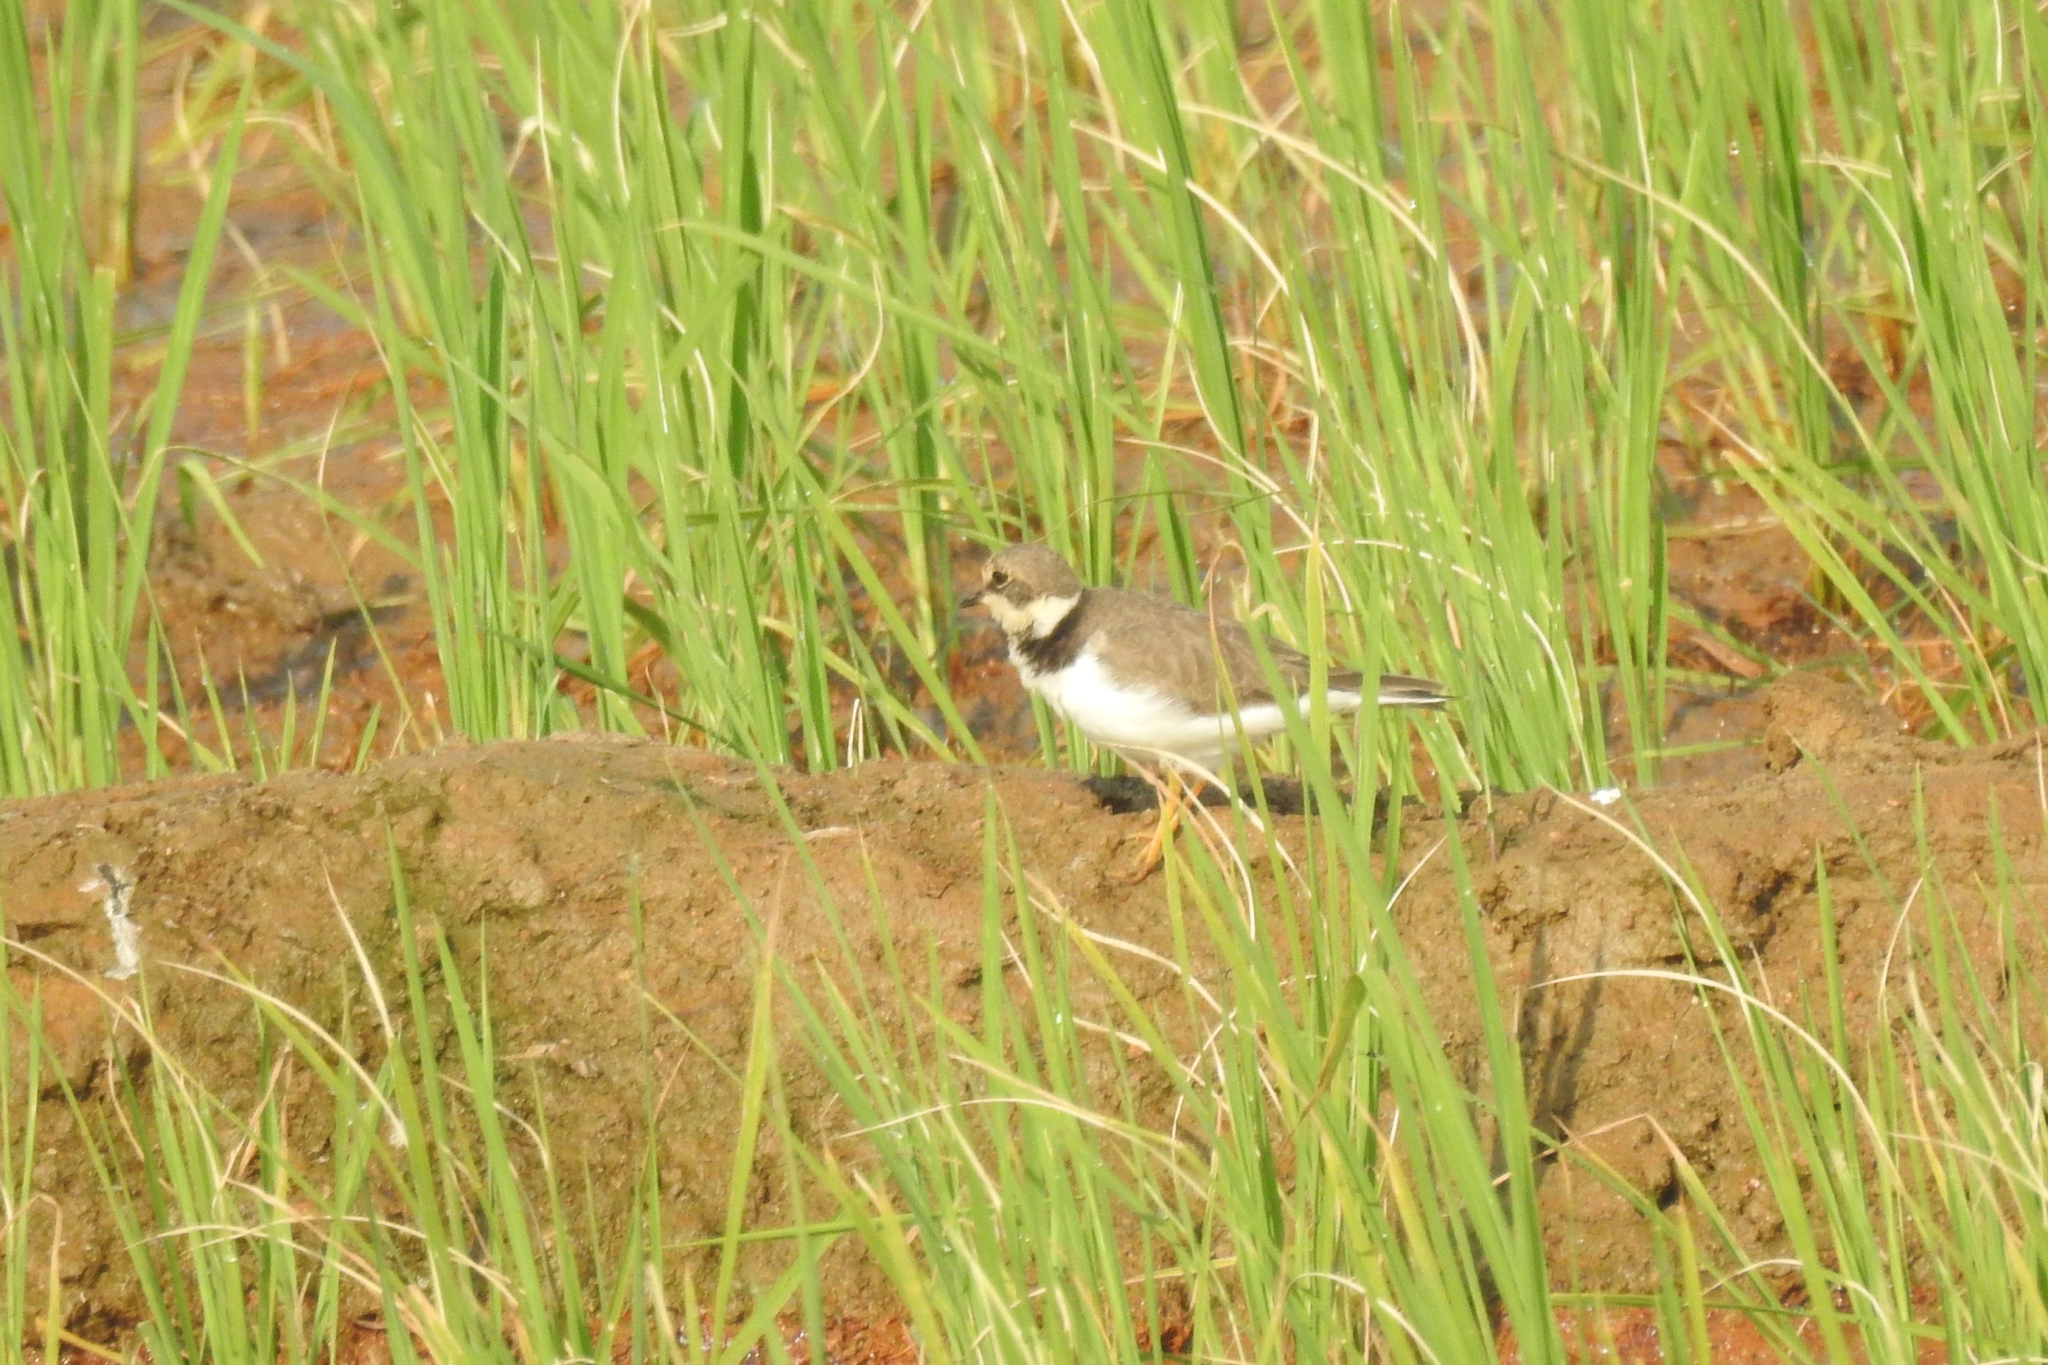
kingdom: Animalia
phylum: Chordata
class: Aves
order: Charadriiformes
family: Charadriidae
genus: Charadrius
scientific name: Charadrius alexandrinus
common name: Kentish plover
